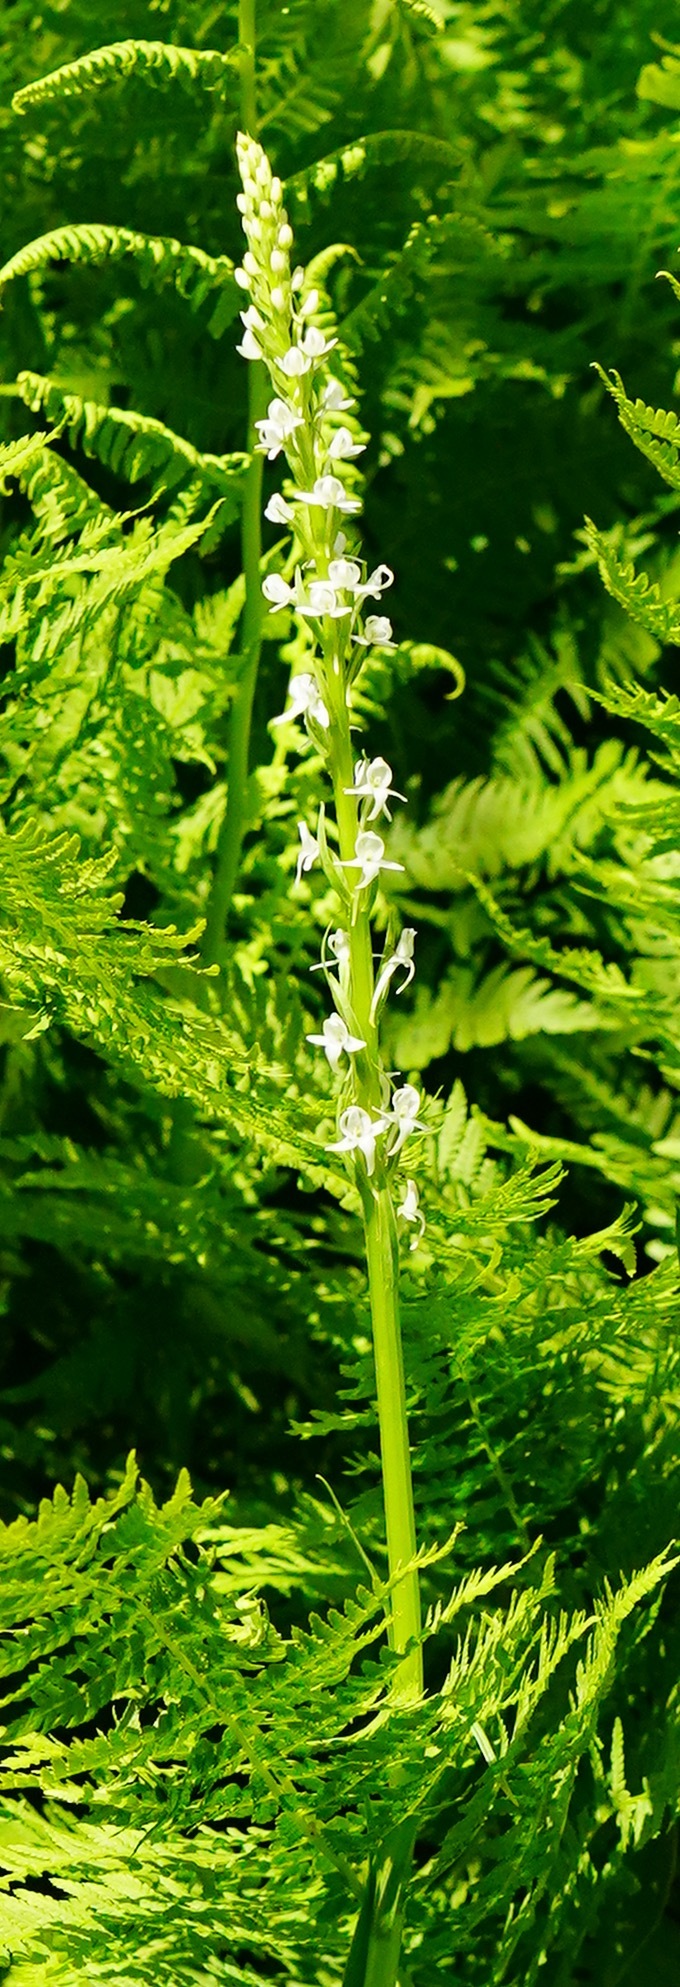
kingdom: Plantae
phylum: Tracheophyta
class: Liliopsida
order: Asparagales
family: Orchidaceae
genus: Platanthera
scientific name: Platanthera dilatata
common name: Bog candles
